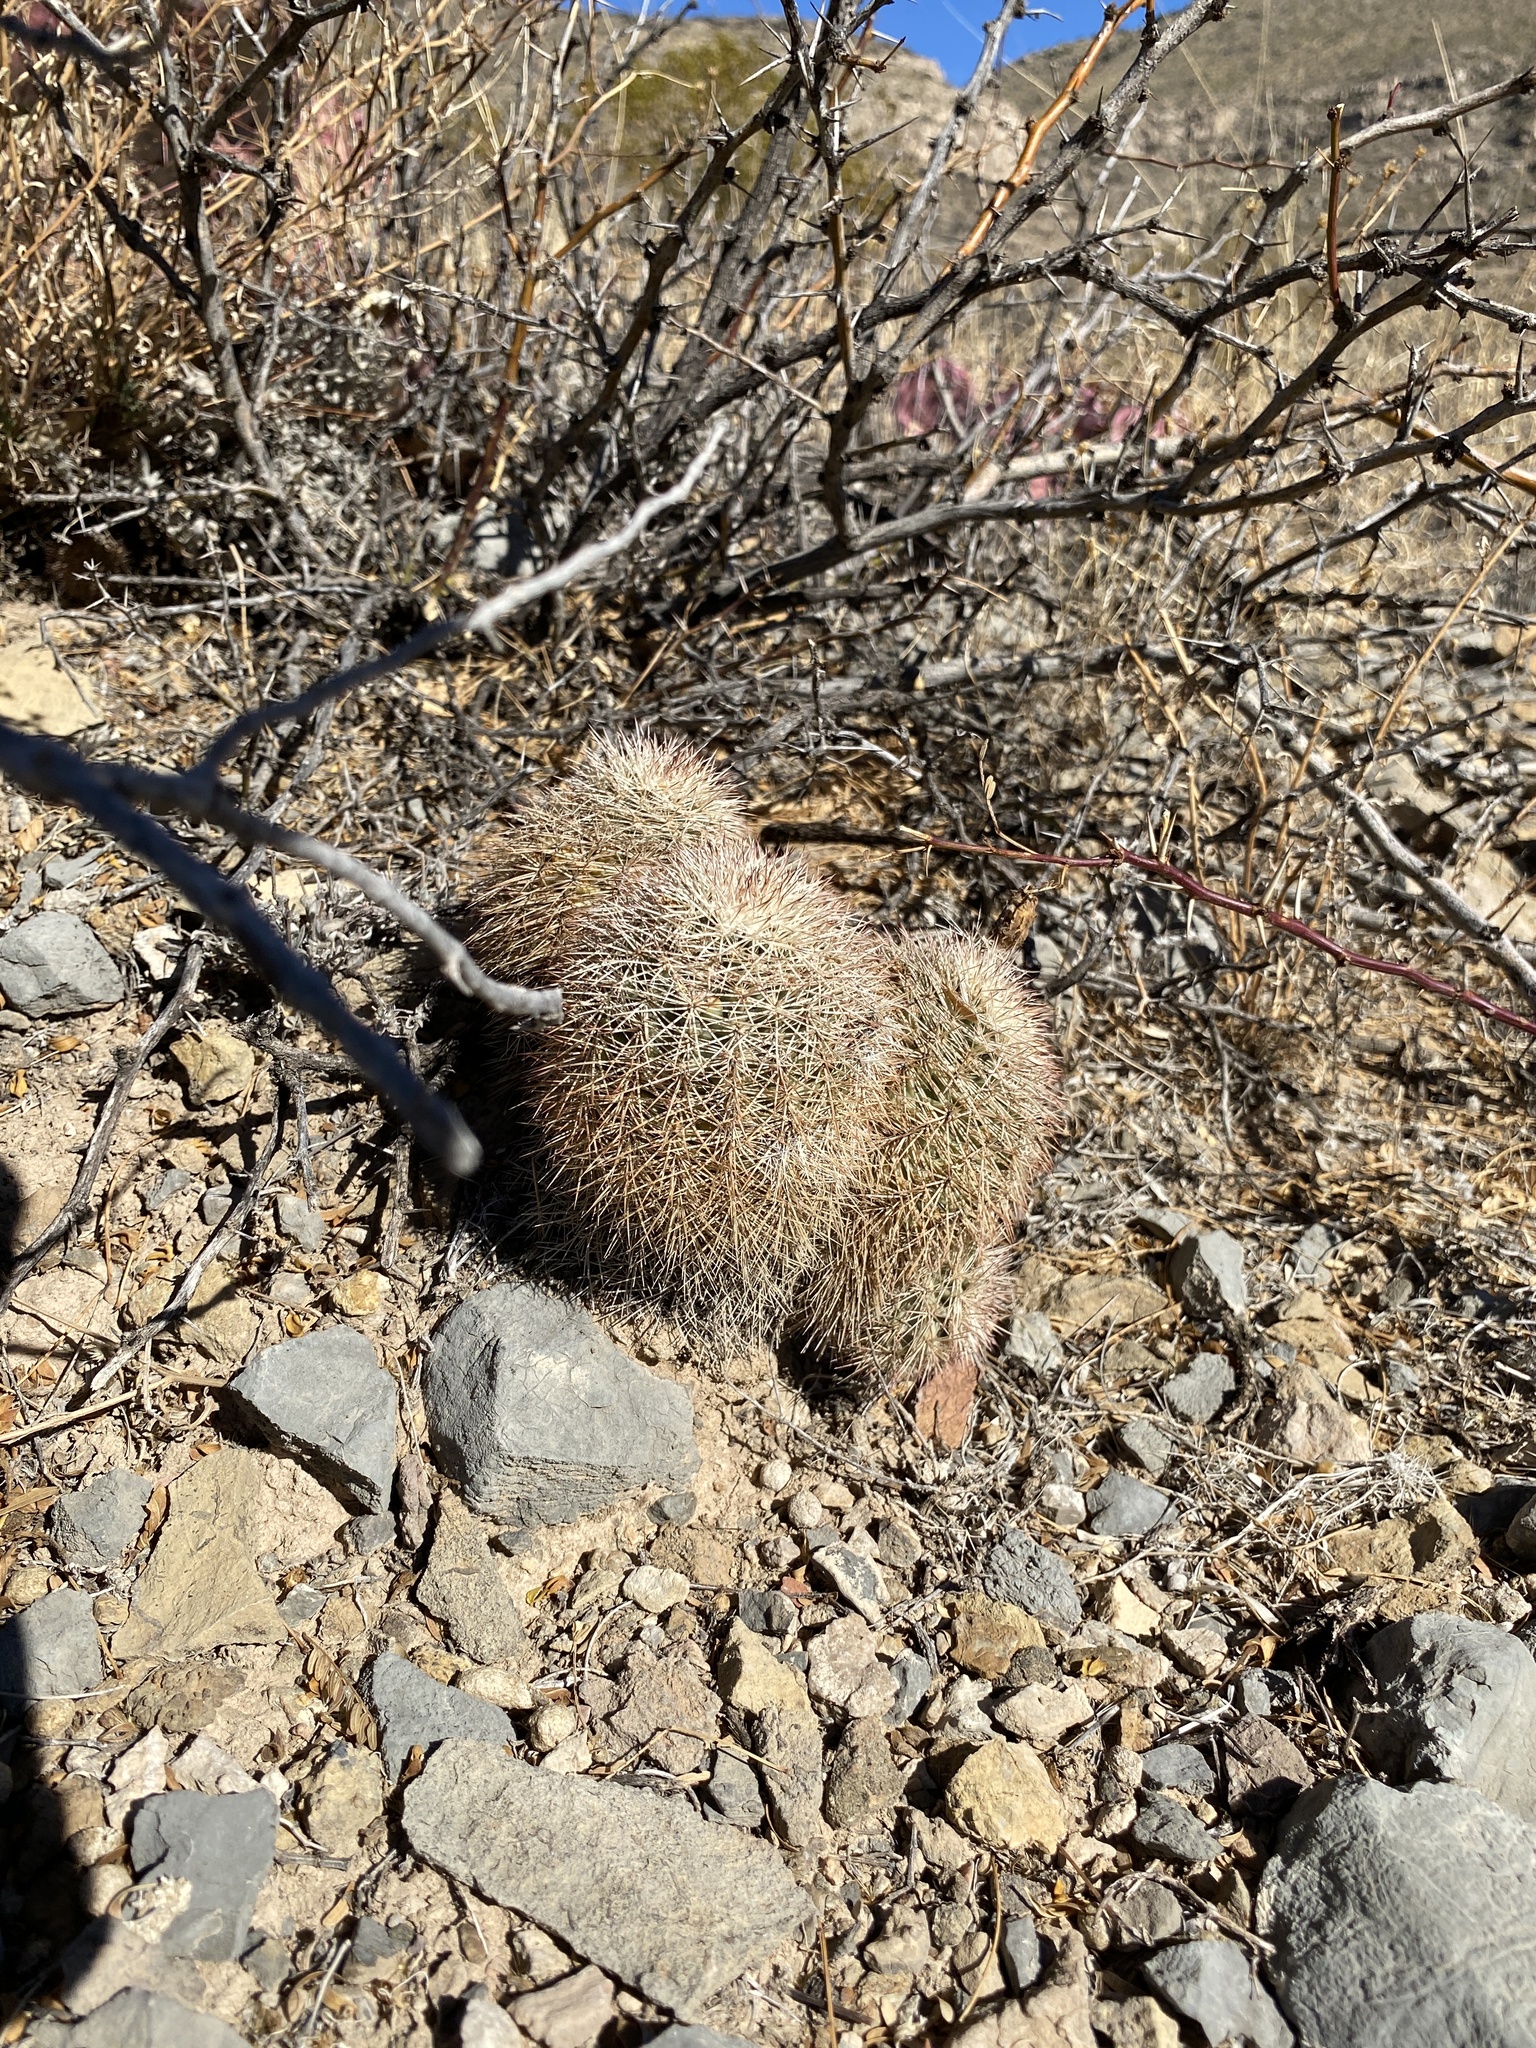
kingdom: Plantae
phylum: Tracheophyta
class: Magnoliopsida
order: Caryophyllales
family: Cactaceae
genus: Echinocereus
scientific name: Echinocereus dasyacanthus
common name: Spiny hedgehog cactus
